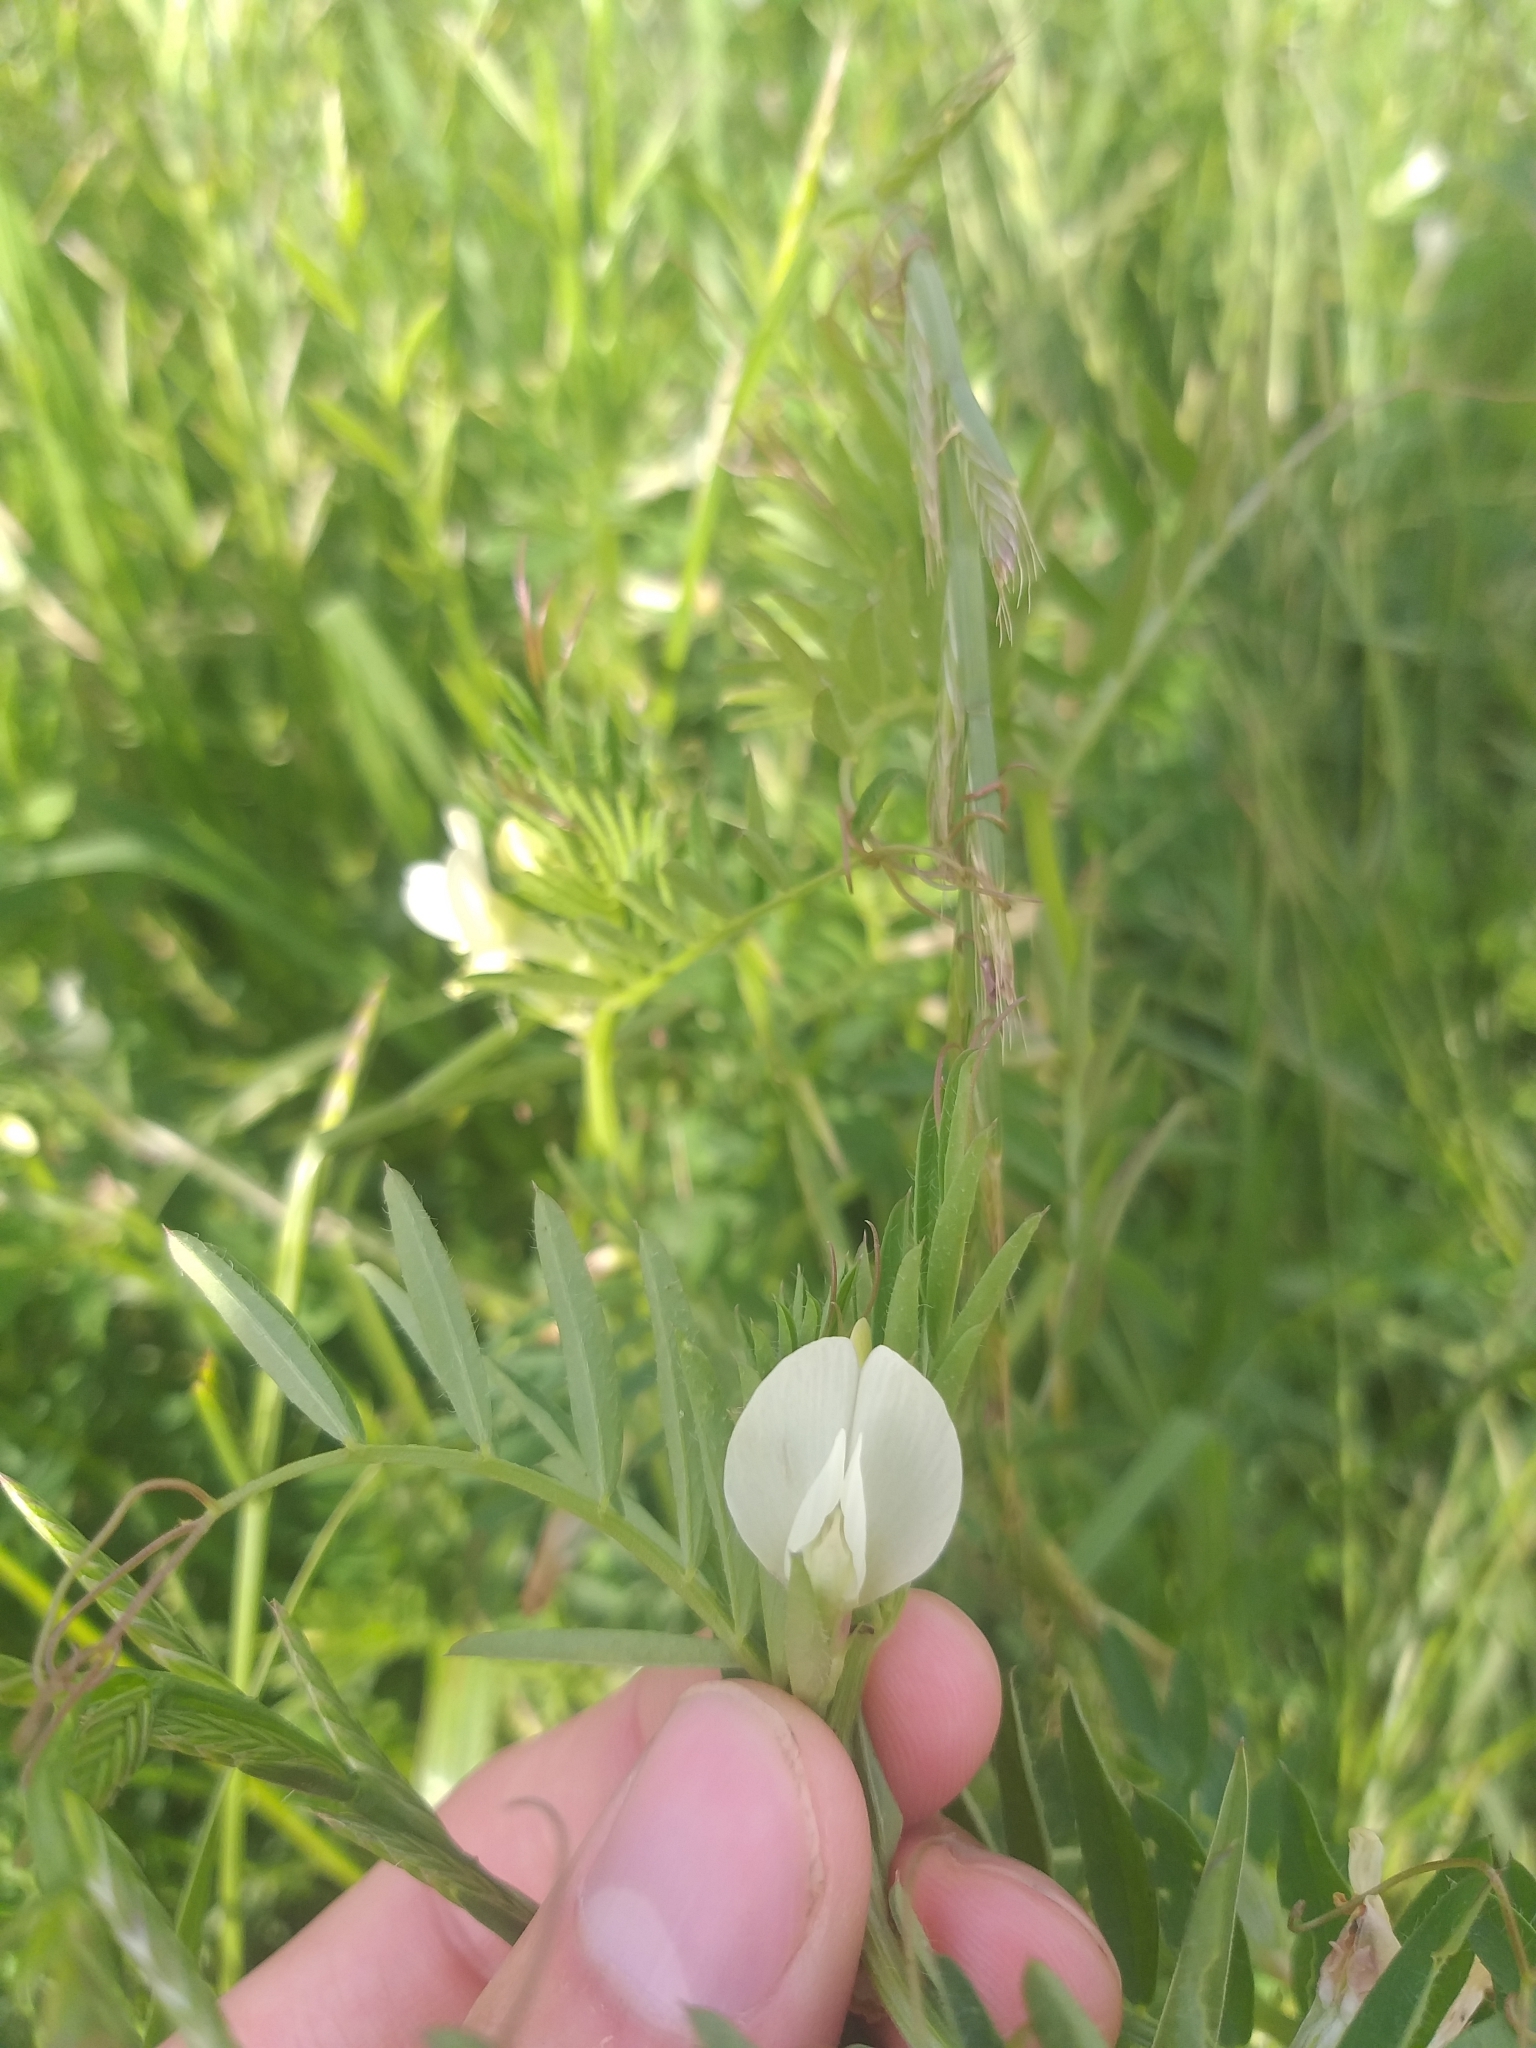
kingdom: Plantae
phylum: Tracheophyta
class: Magnoliopsida
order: Fabales
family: Fabaceae
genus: Vicia
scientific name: Vicia lutea
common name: Smooth yellow vetch
